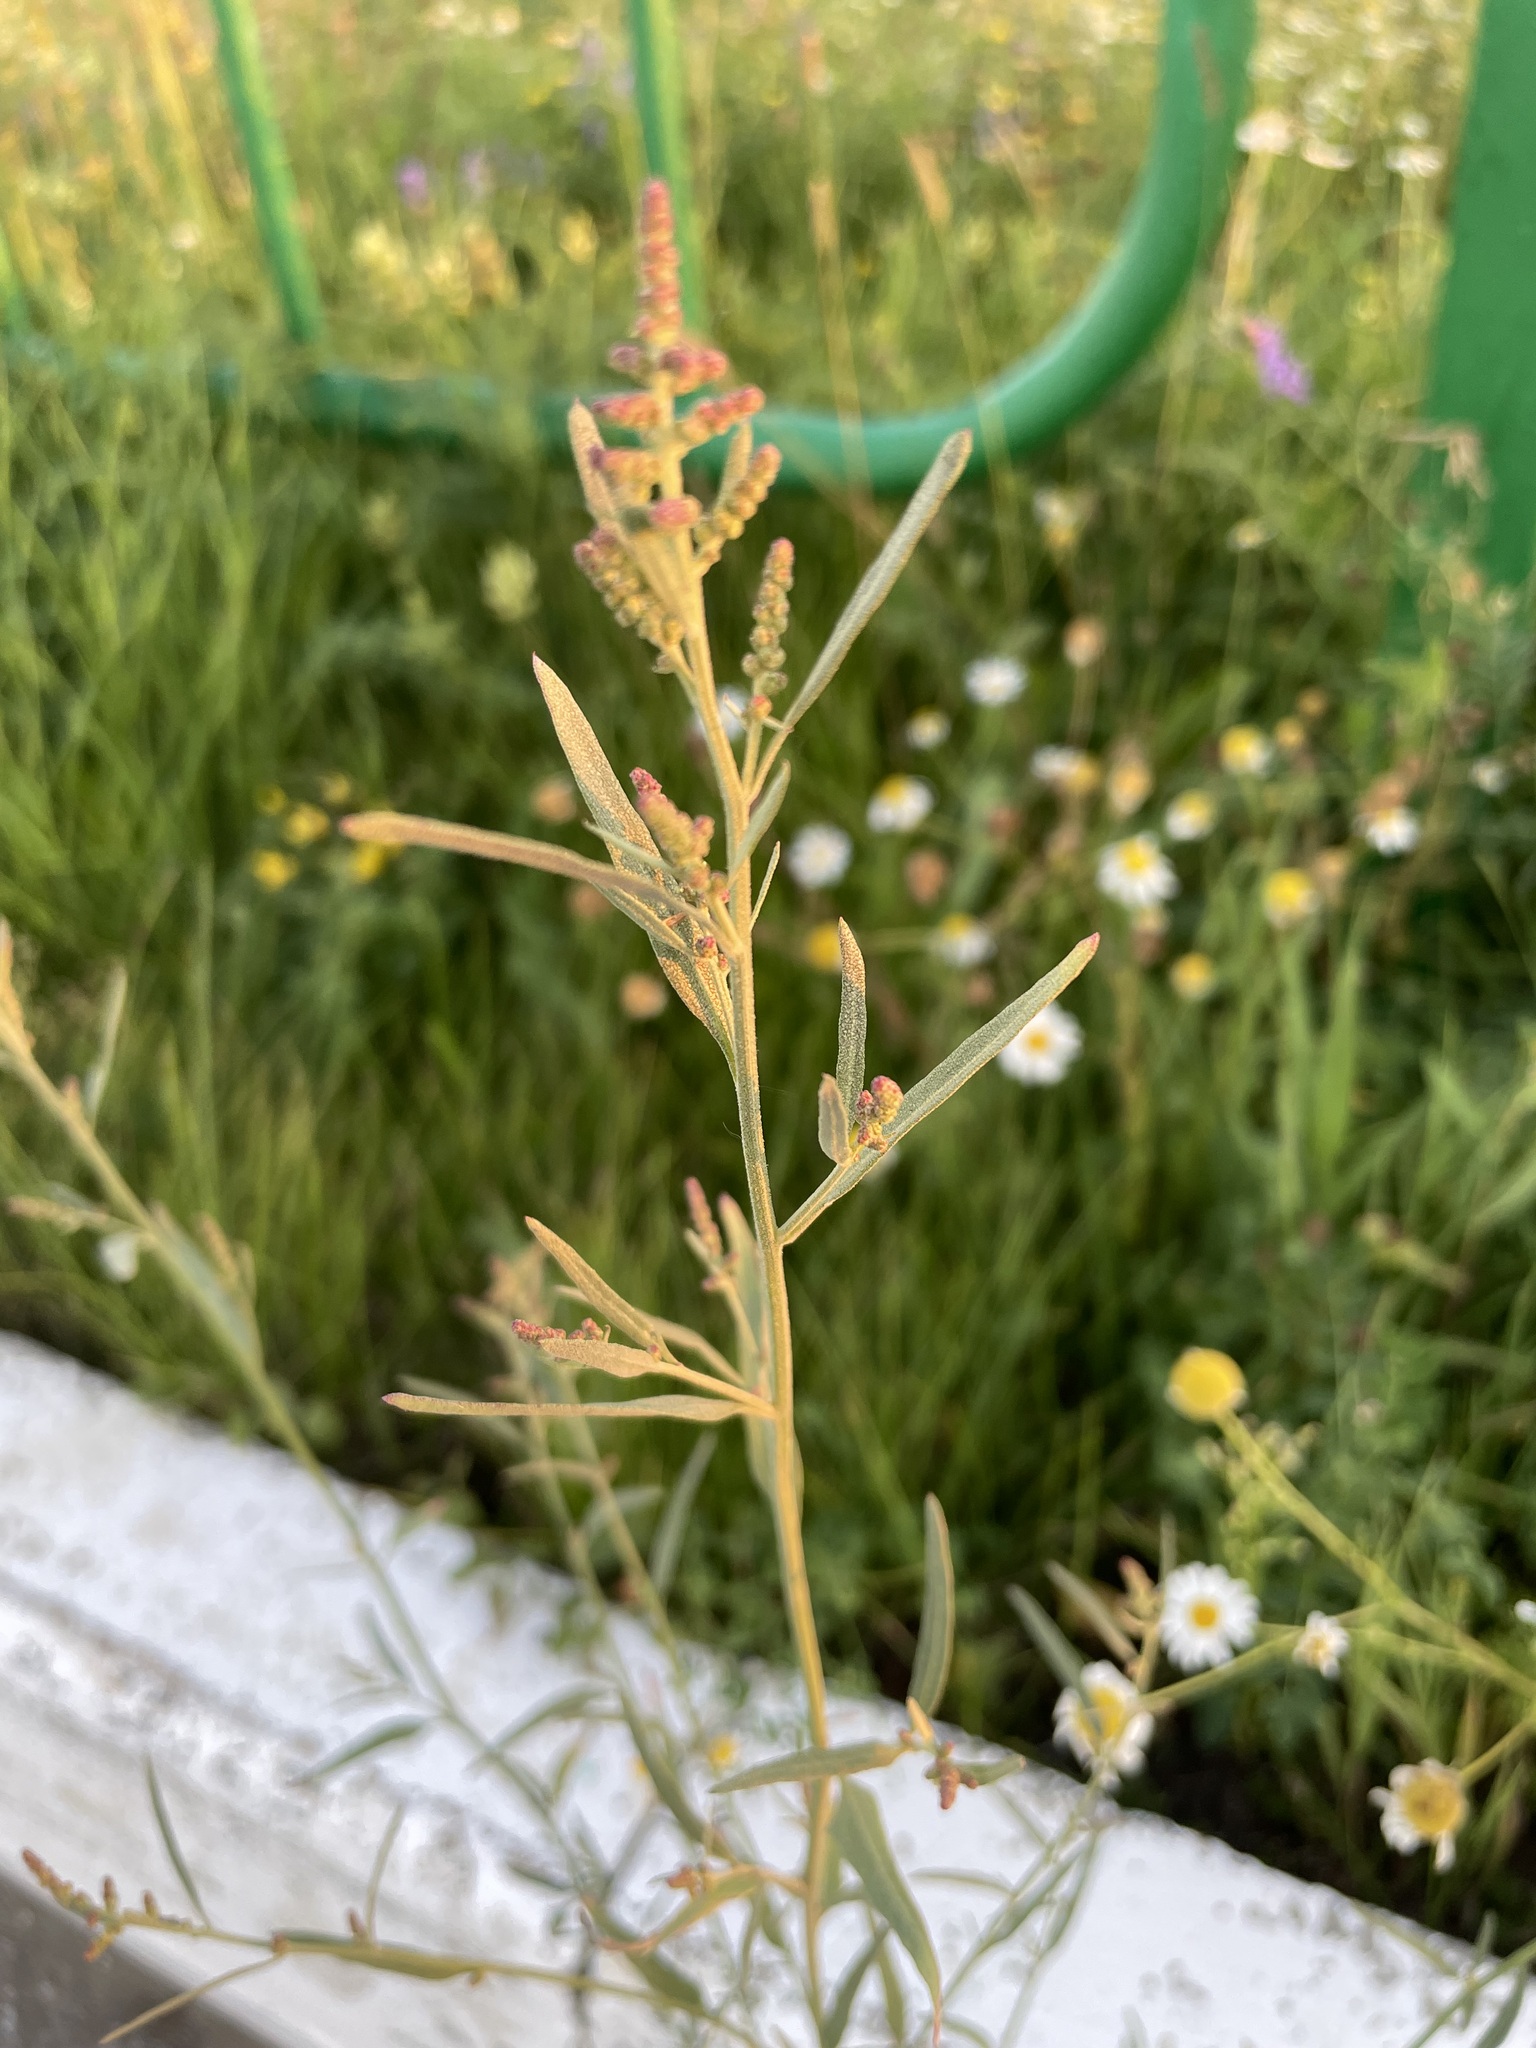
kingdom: Plantae
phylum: Tracheophyta
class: Magnoliopsida
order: Caryophyllales
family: Amaranthaceae
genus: Atriplex
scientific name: Atriplex patula
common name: Common orache
